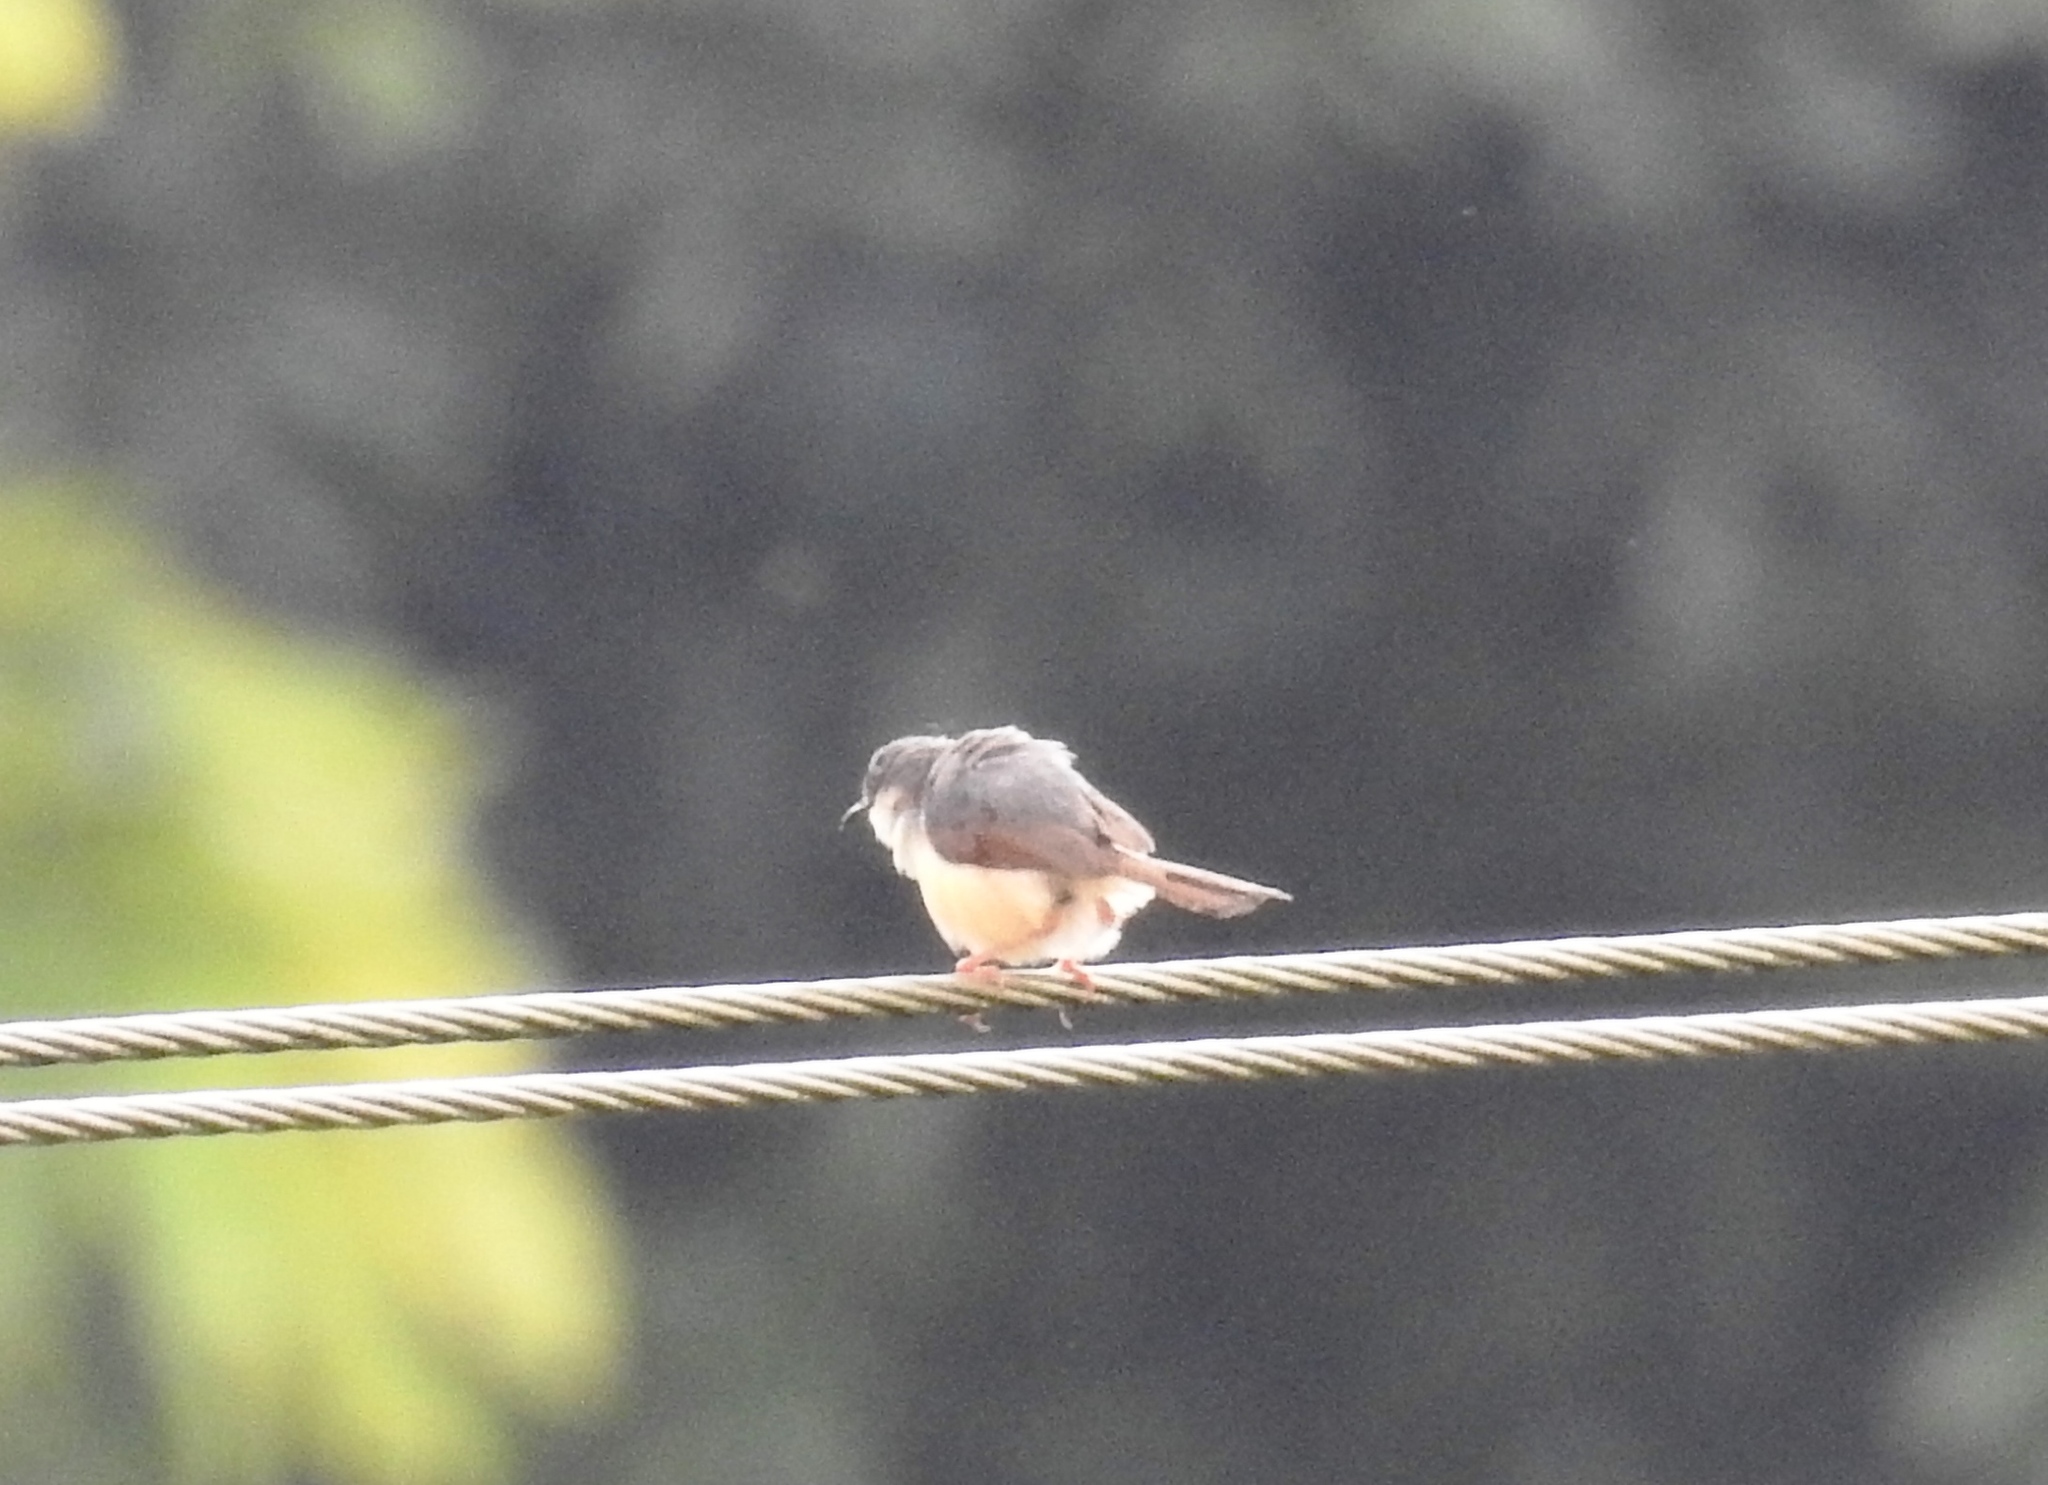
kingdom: Animalia
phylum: Chordata
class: Aves
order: Passeriformes
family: Cisticolidae
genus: Prinia
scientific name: Prinia socialis
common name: Ashy prinia
